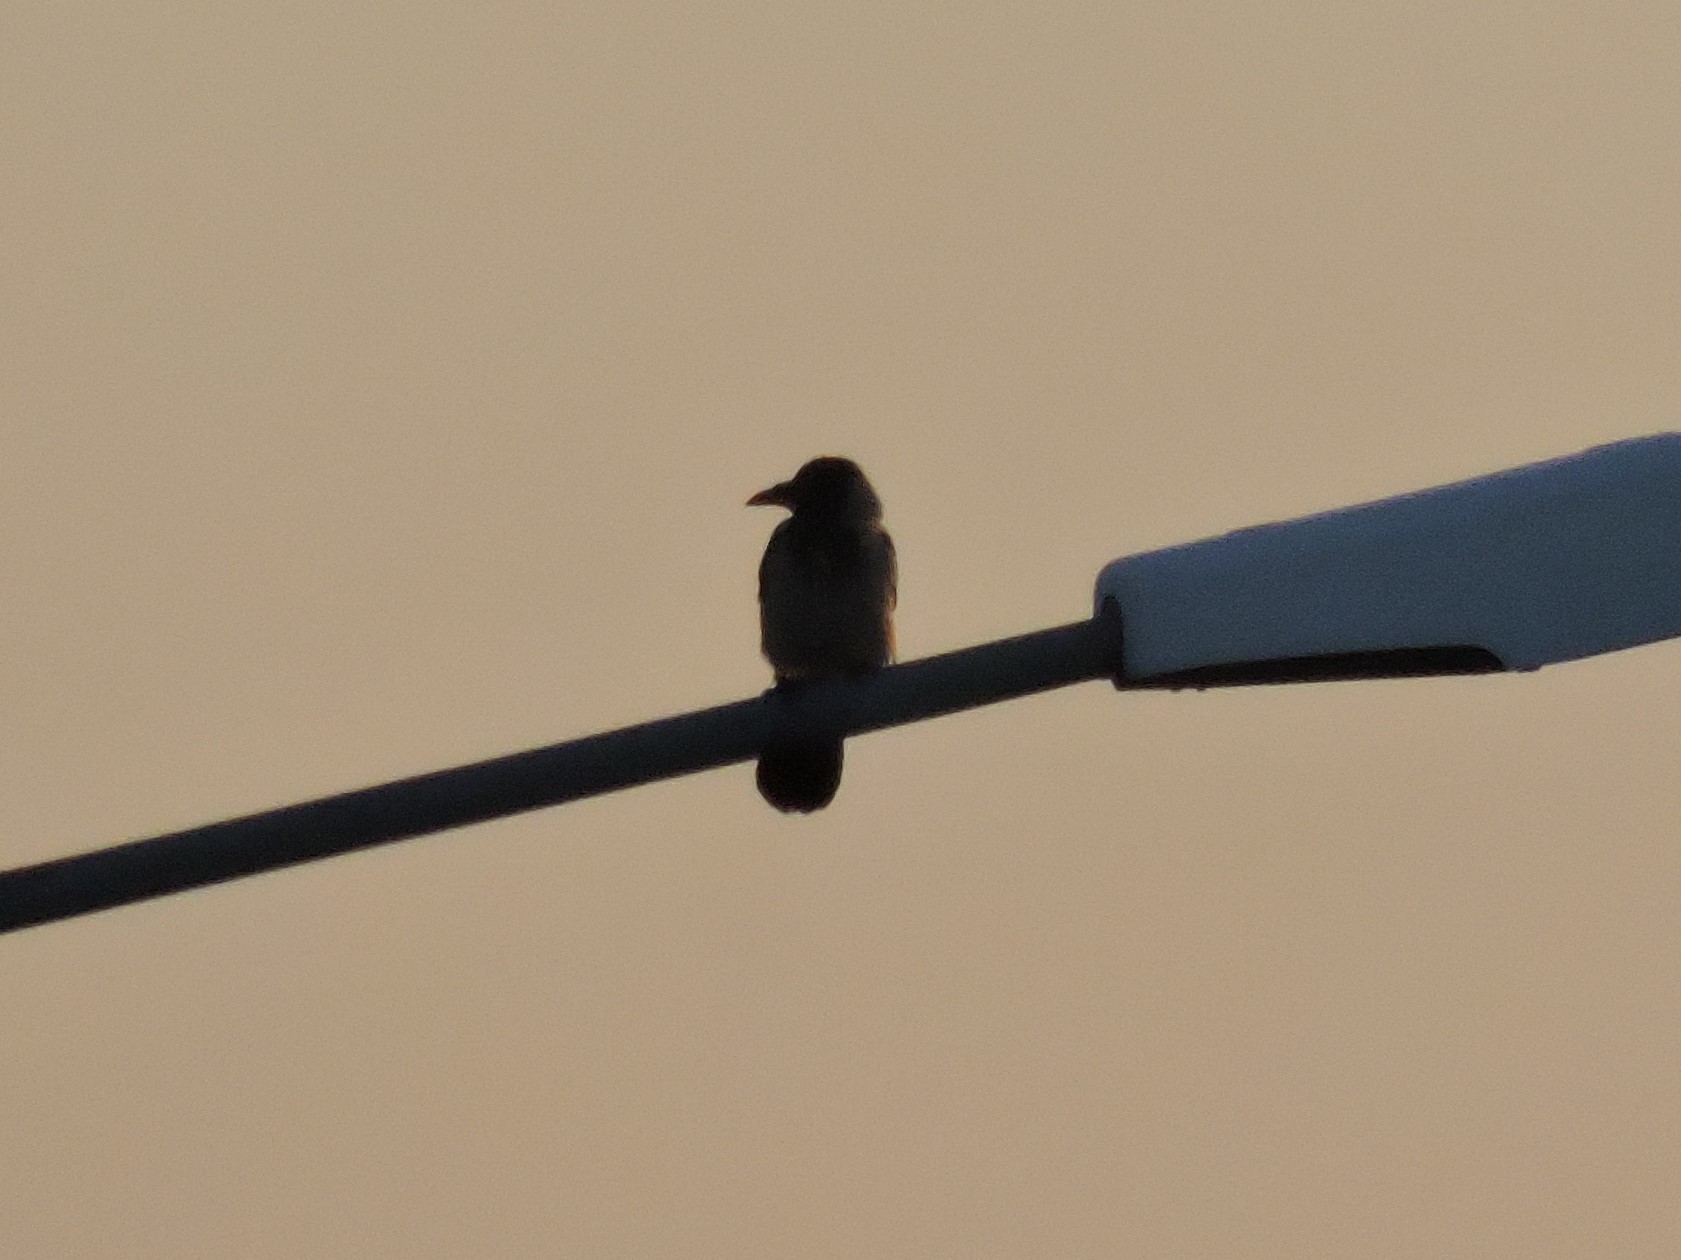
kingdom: Animalia
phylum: Chordata
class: Aves
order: Passeriformes
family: Corvidae
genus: Corvus
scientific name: Corvus cornix
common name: Hooded crow
